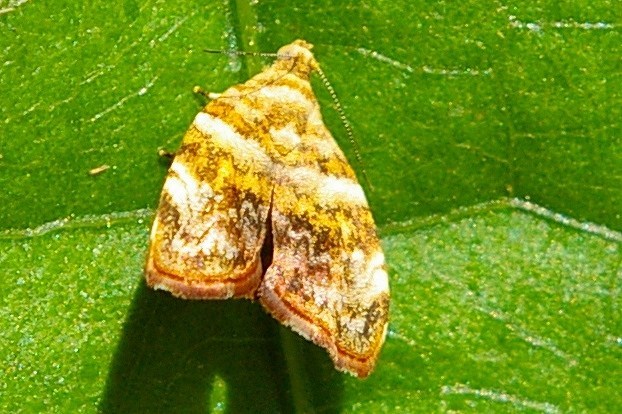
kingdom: Animalia
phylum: Arthropoda
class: Insecta
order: Lepidoptera
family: Choreutidae
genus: Choreutis
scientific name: Choreutis
